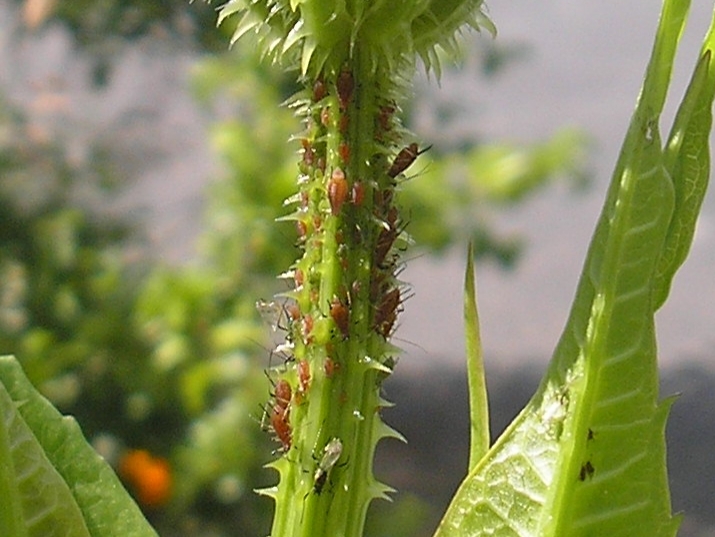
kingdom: Animalia
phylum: Arthropoda
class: Insecta
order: Hemiptera
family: Aphididae
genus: Macrosiphum
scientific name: Macrosiphum rosae
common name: Rose aphid
